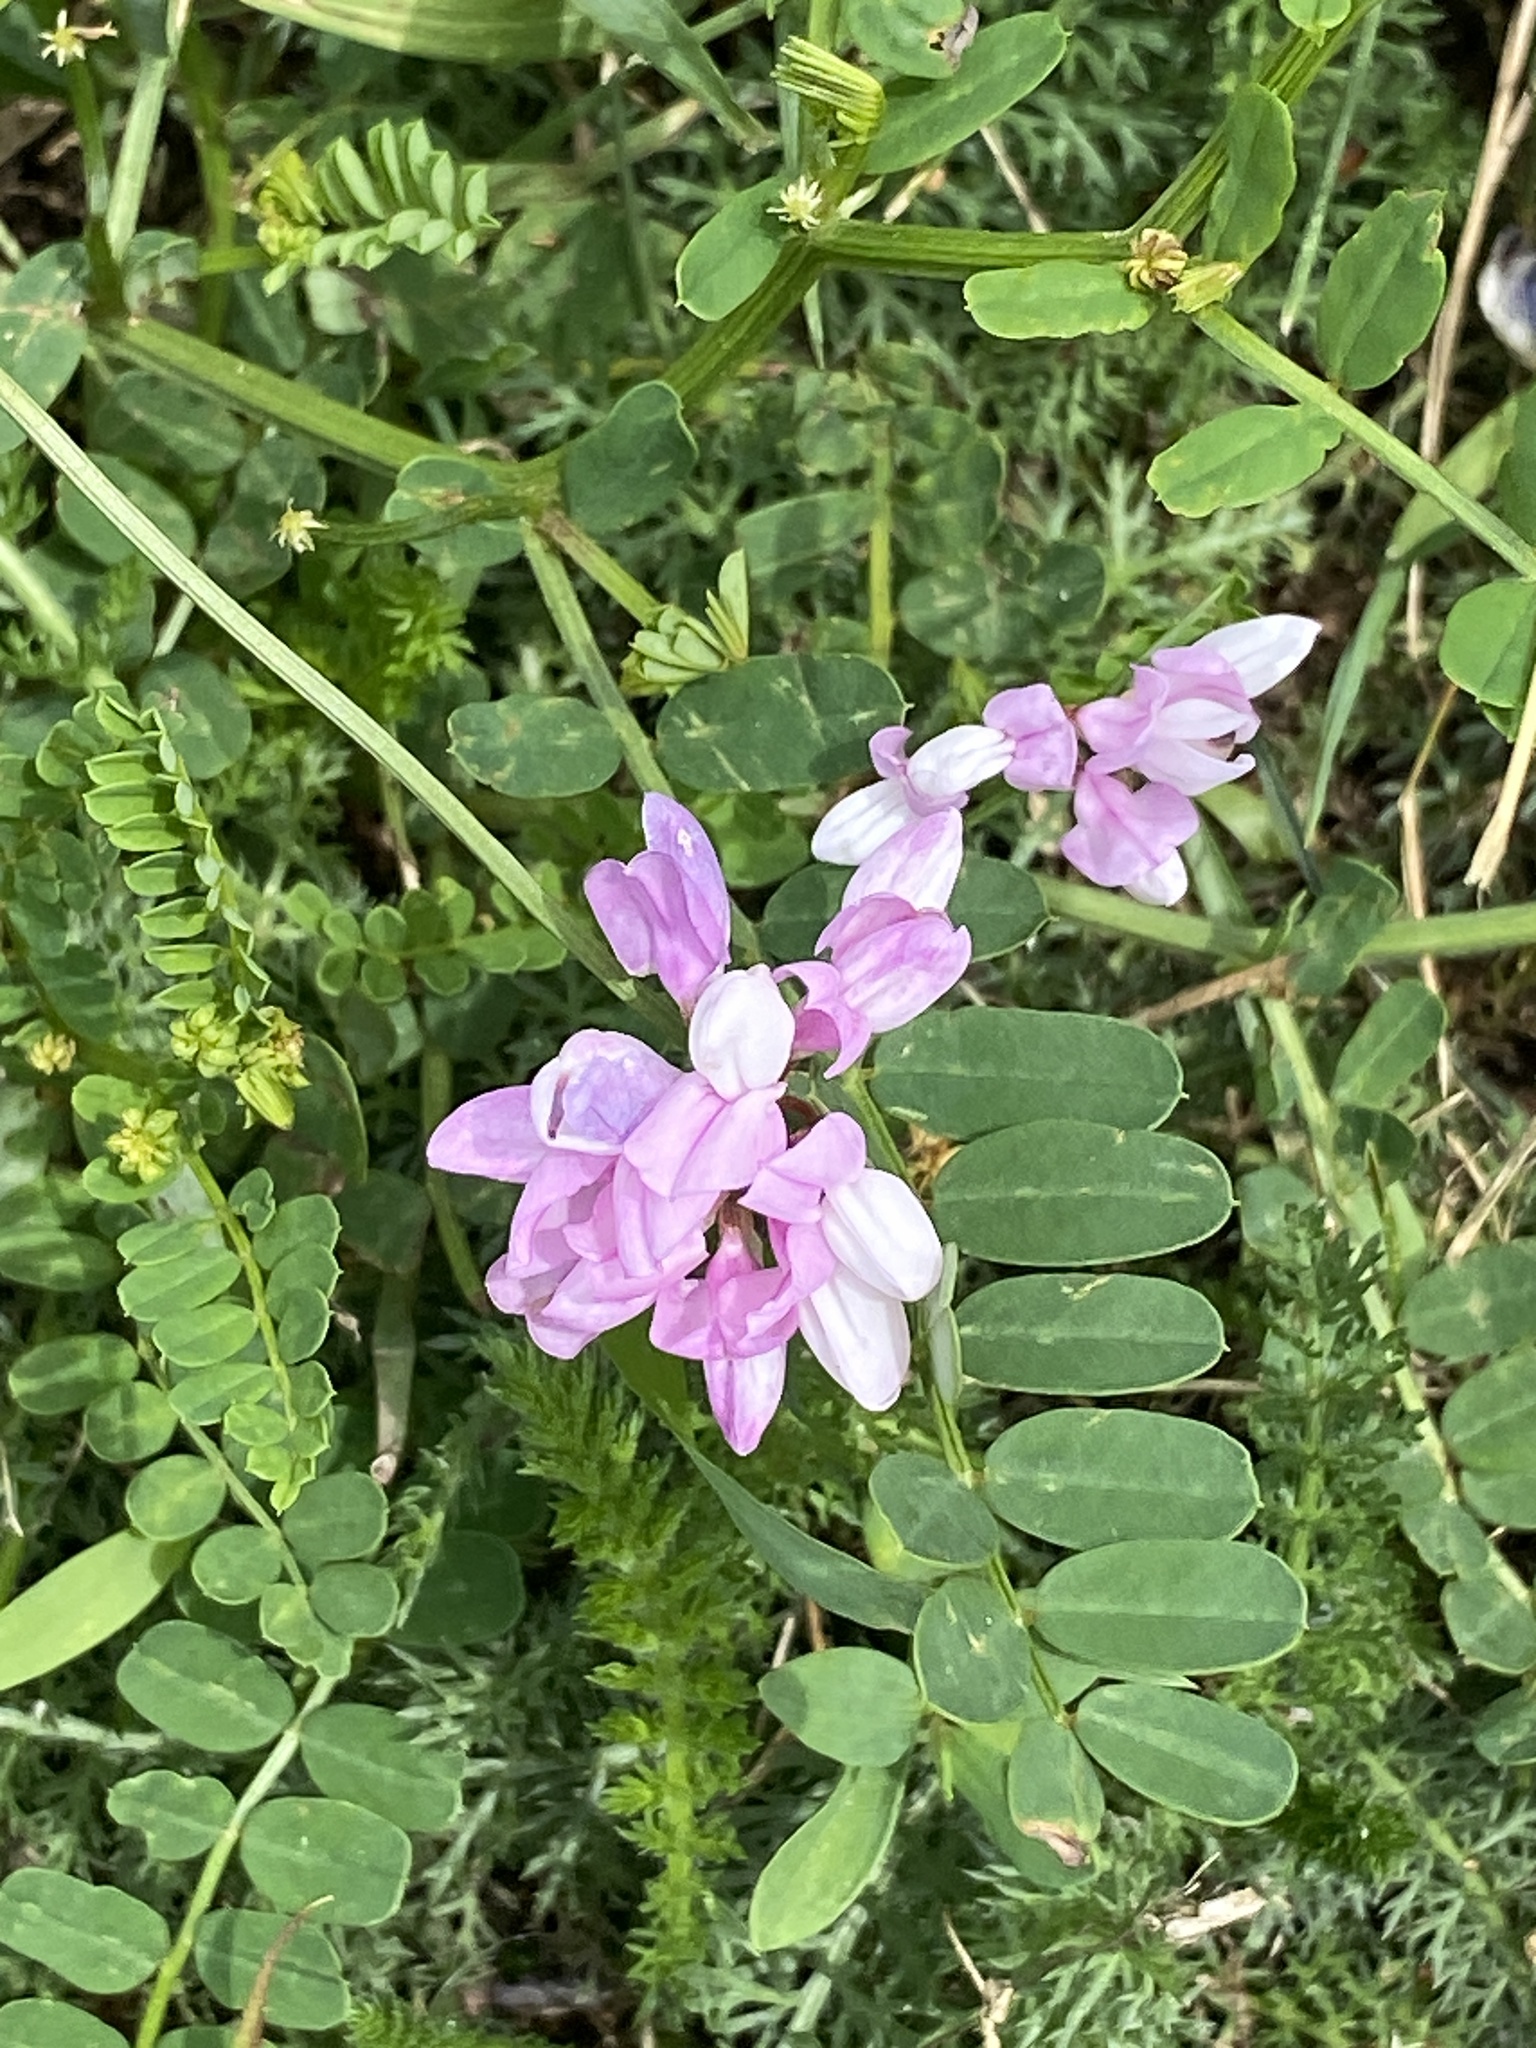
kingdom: Plantae
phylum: Tracheophyta
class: Magnoliopsida
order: Fabales
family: Fabaceae
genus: Coronilla
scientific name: Coronilla varia
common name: Crownvetch
